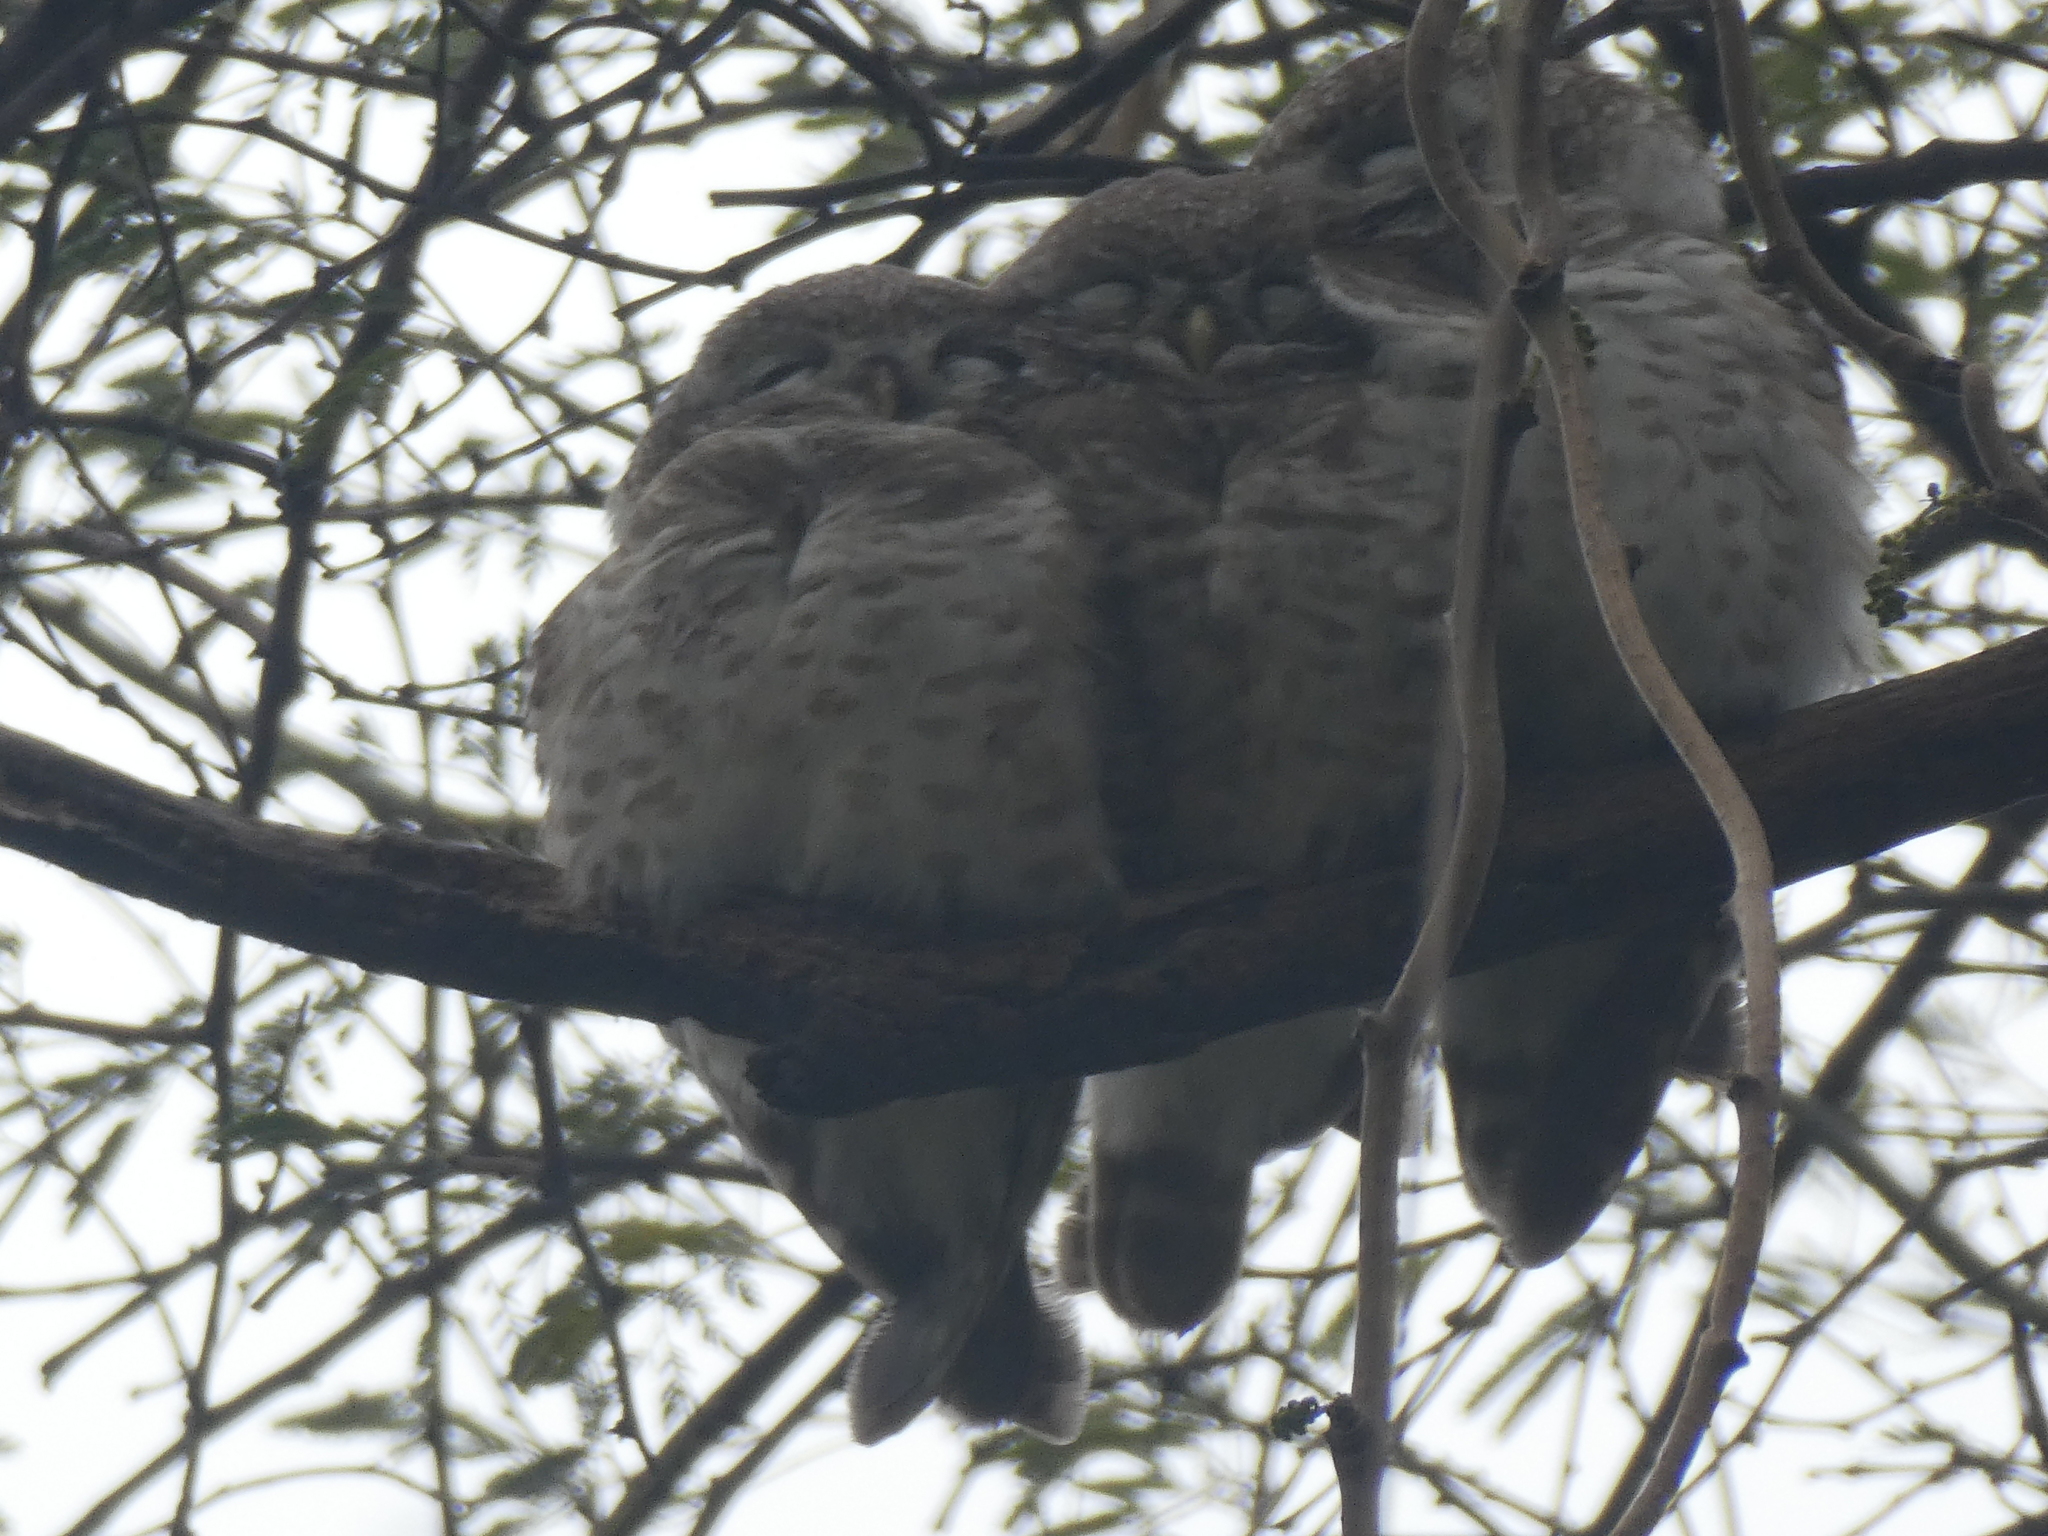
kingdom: Animalia
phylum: Chordata
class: Aves
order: Strigiformes
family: Strigidae
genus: Athene
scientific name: Athene brama
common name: Spotted owlet
